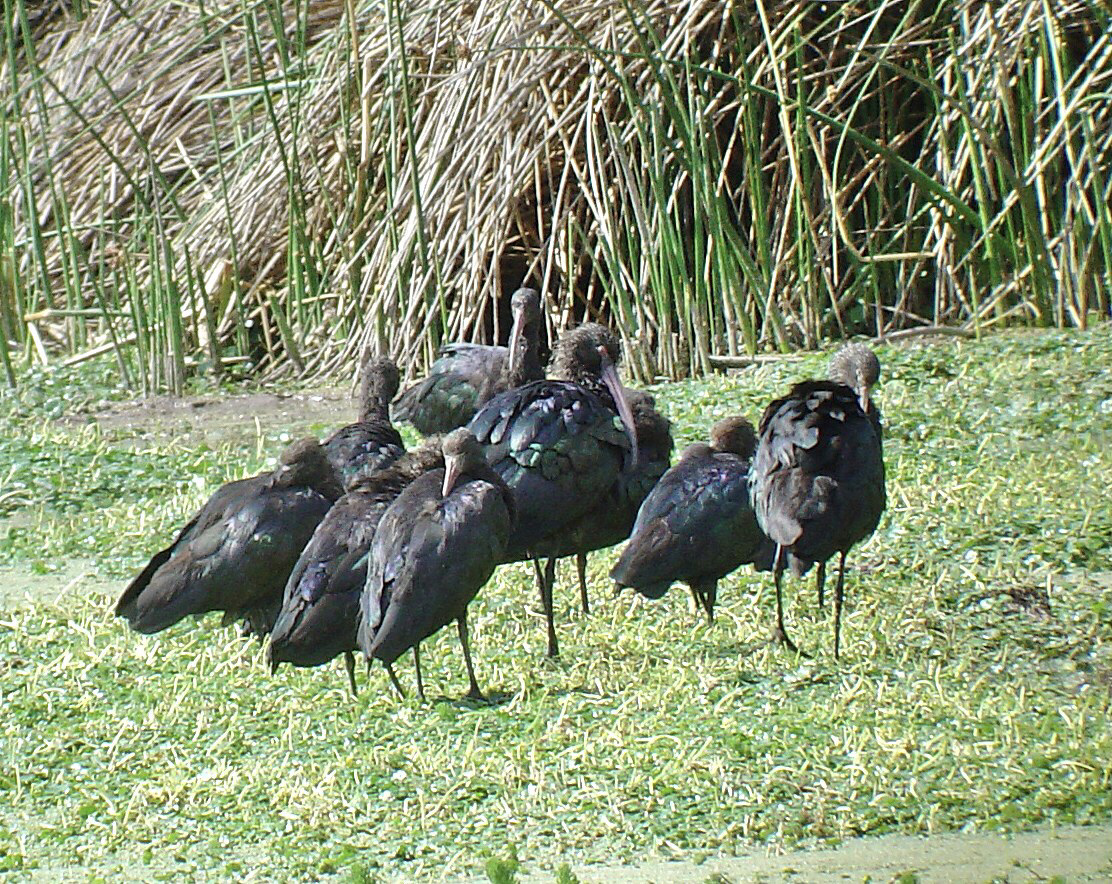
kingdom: Animalia
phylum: Chordata
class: Aves
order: Pelecaniformes
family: Threskiornithidae
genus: Plegadis
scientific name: Plegadis ridgwayi
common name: Puna ibis
